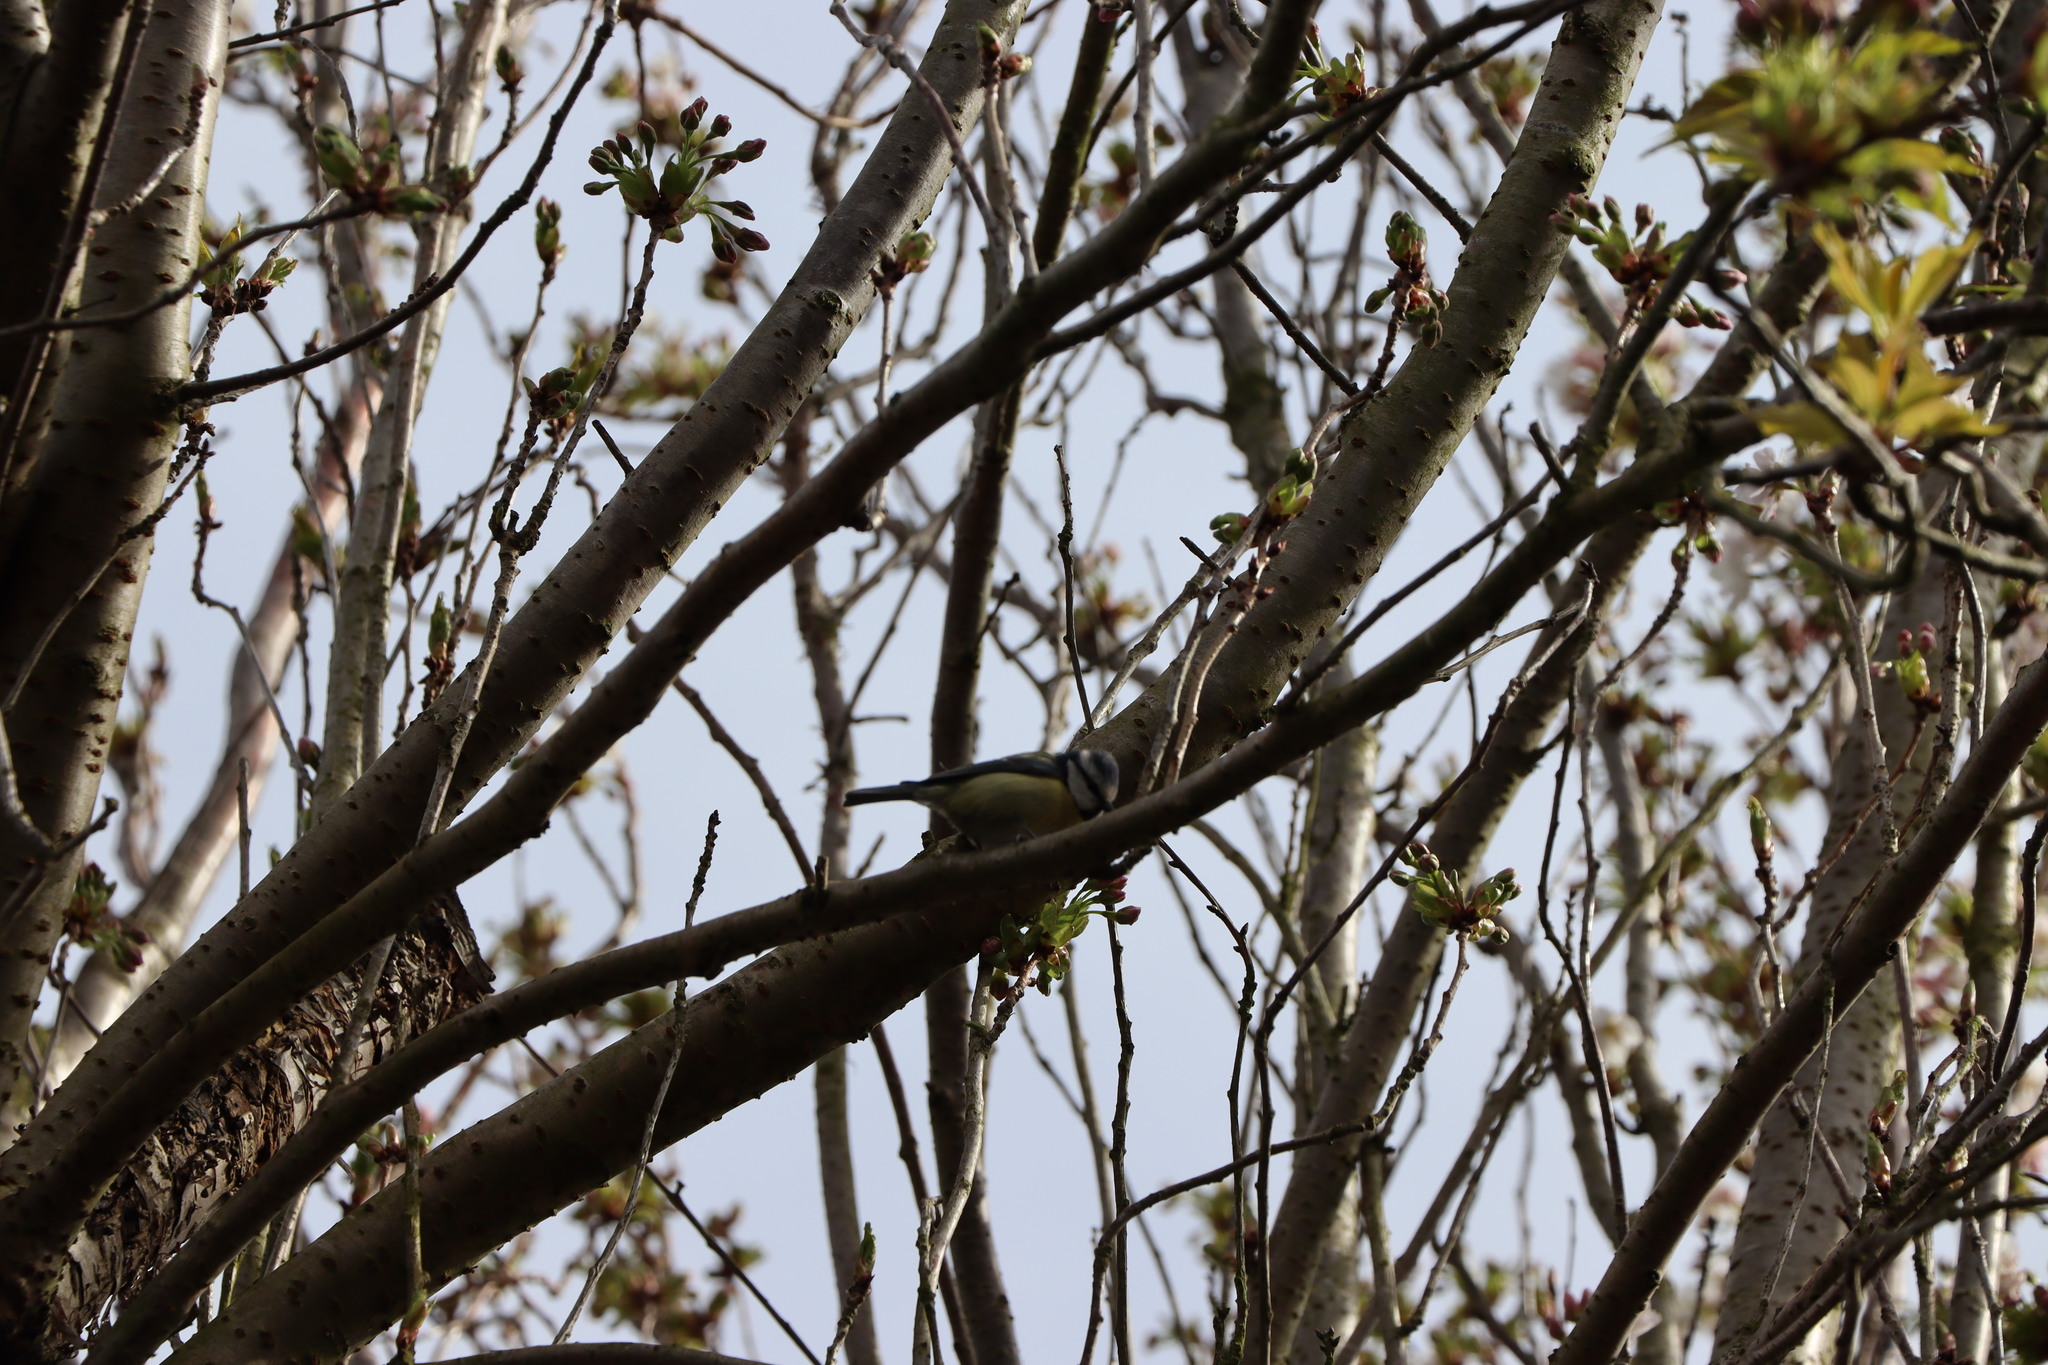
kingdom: Animalia
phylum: Chordata
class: Aves
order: Passeriformes
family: Paridae
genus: Cyanistes
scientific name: Cyanistes caeruleus
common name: Eurasian blue tit
